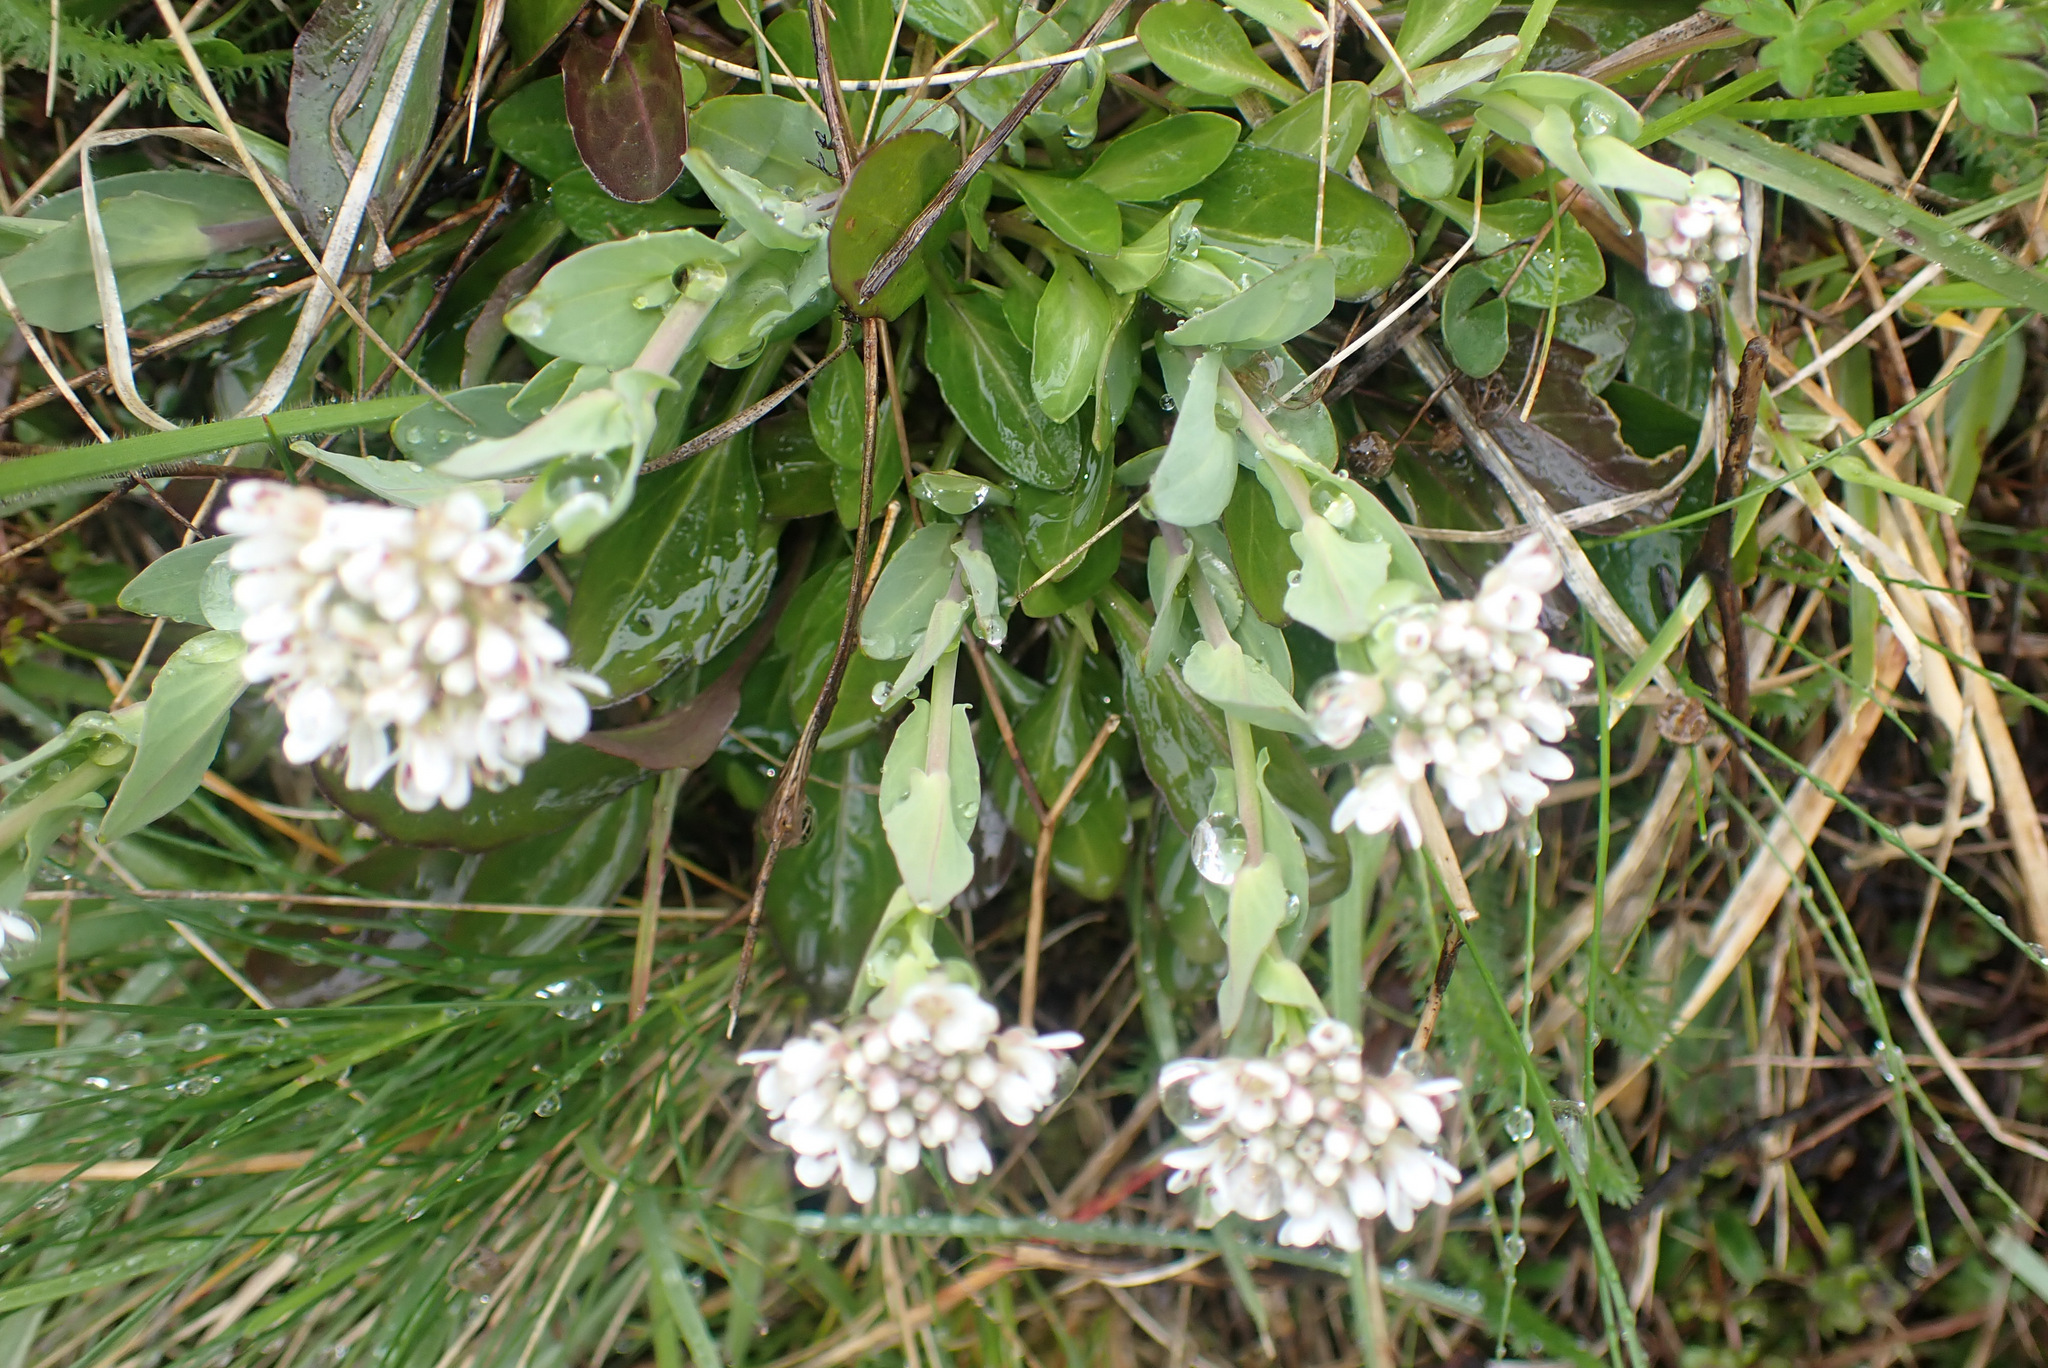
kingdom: Plantae
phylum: Tracheophyta
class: Magnoliopsida
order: Brassicales
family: Brassicaceae
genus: Noccaea
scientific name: Noccaea caerulescens
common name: Alpine pennycress
